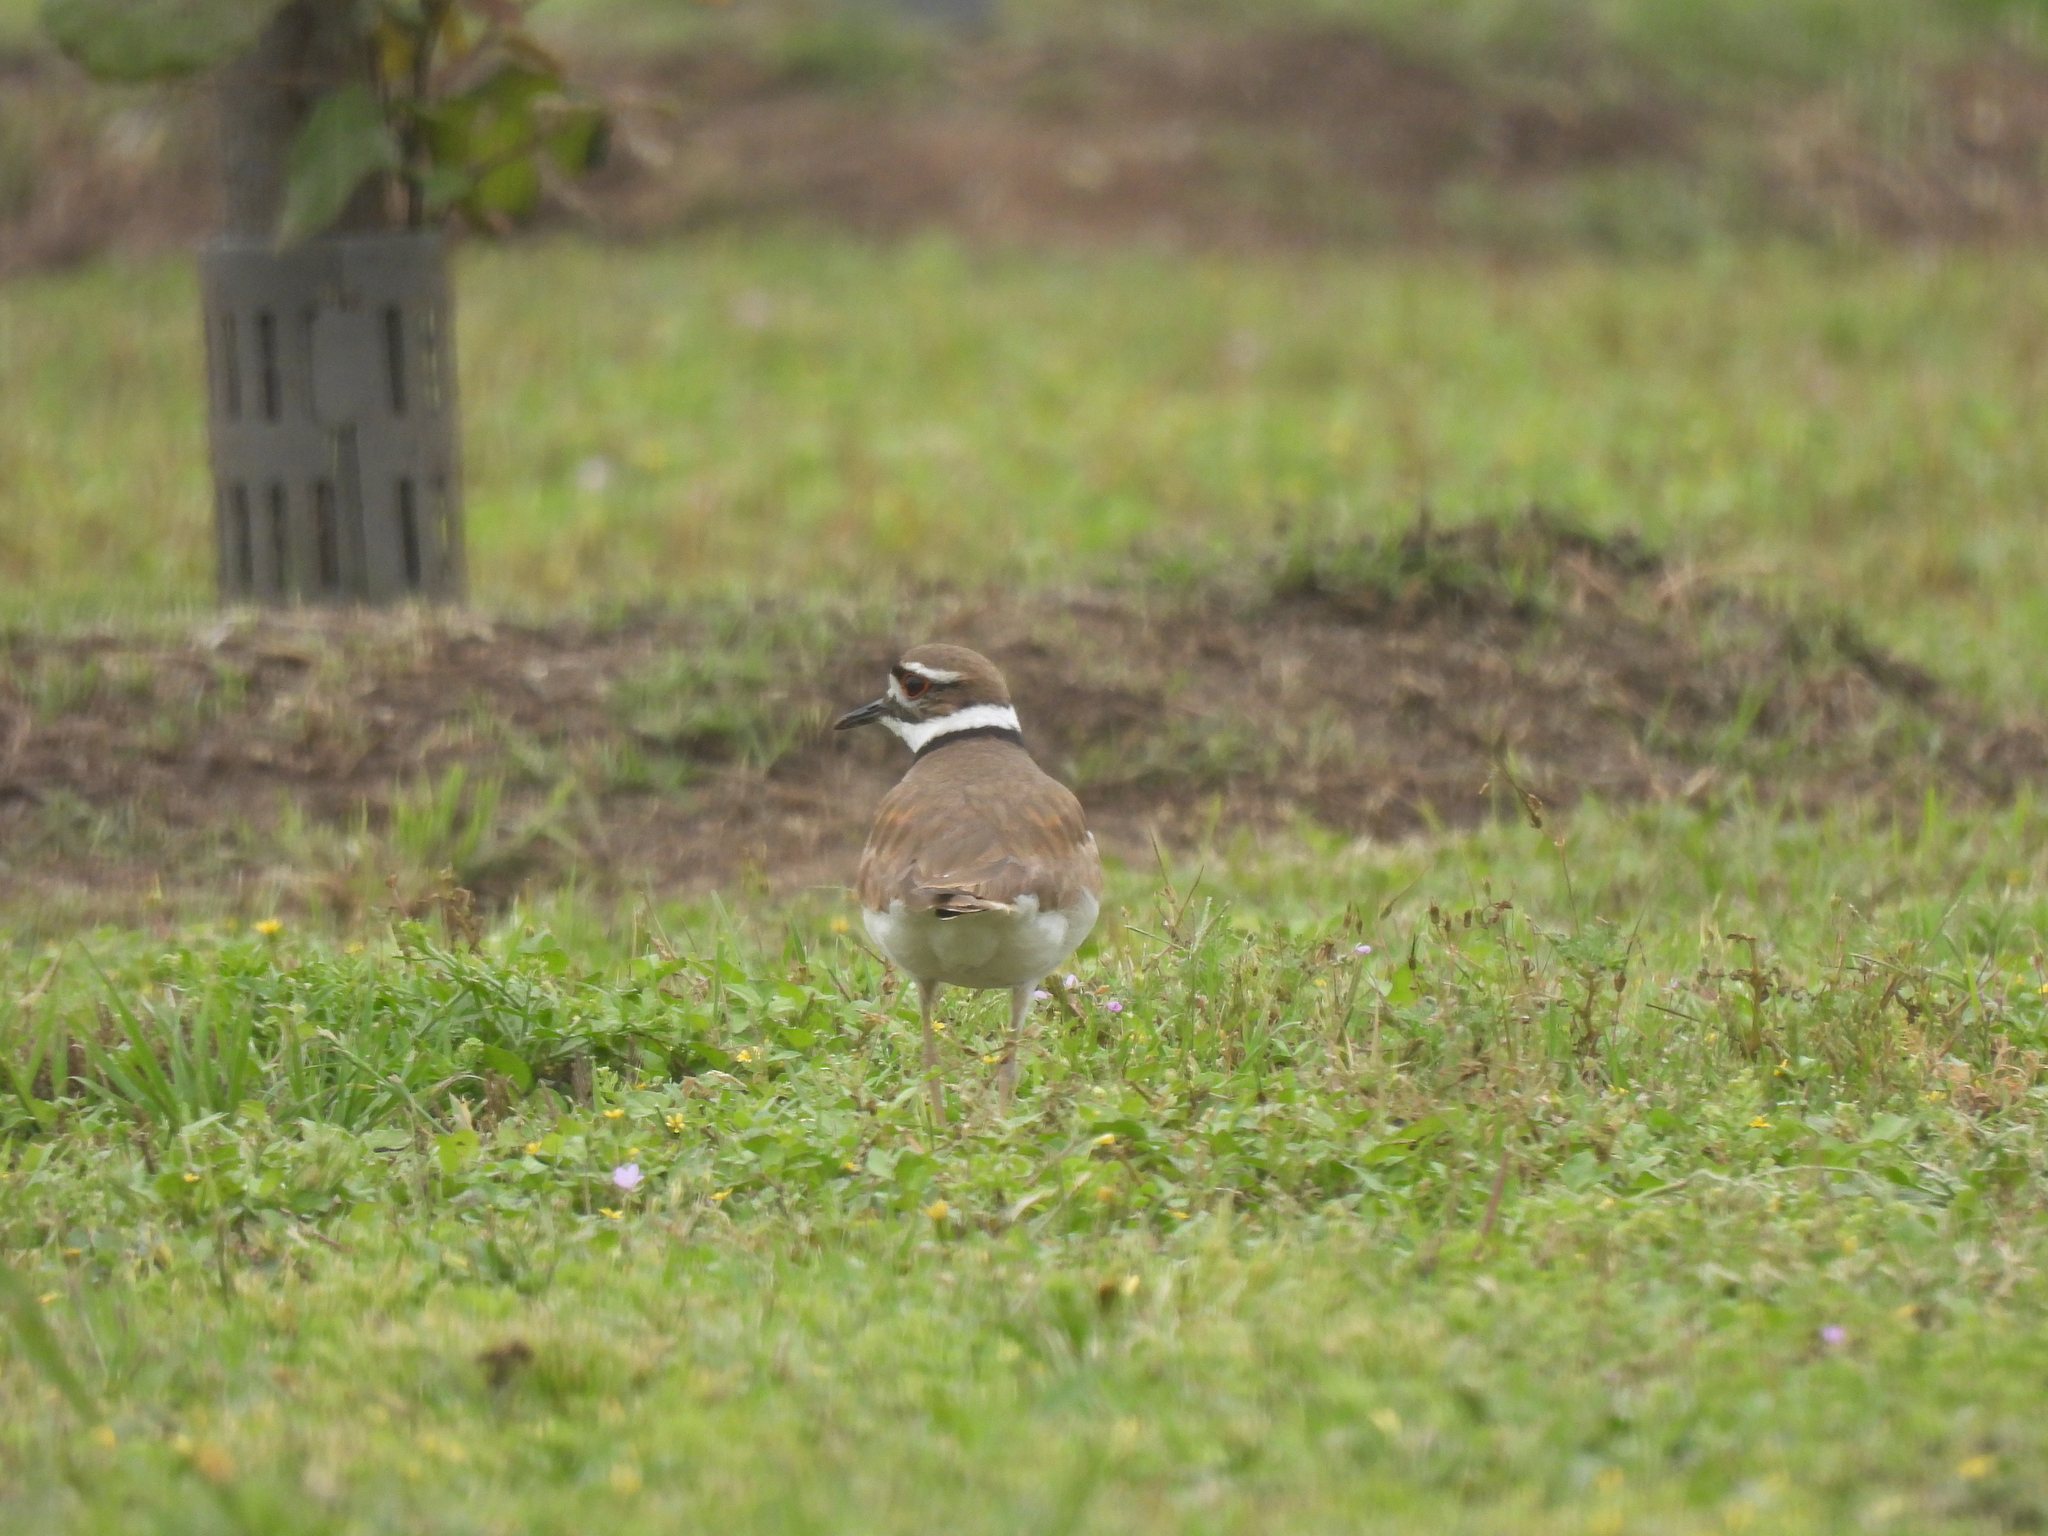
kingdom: Animalia
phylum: Chordata
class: Aves
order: Charadriiformes
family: Charadriidae
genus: Charadrius
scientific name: Charadrius vociferus
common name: Killdeer
